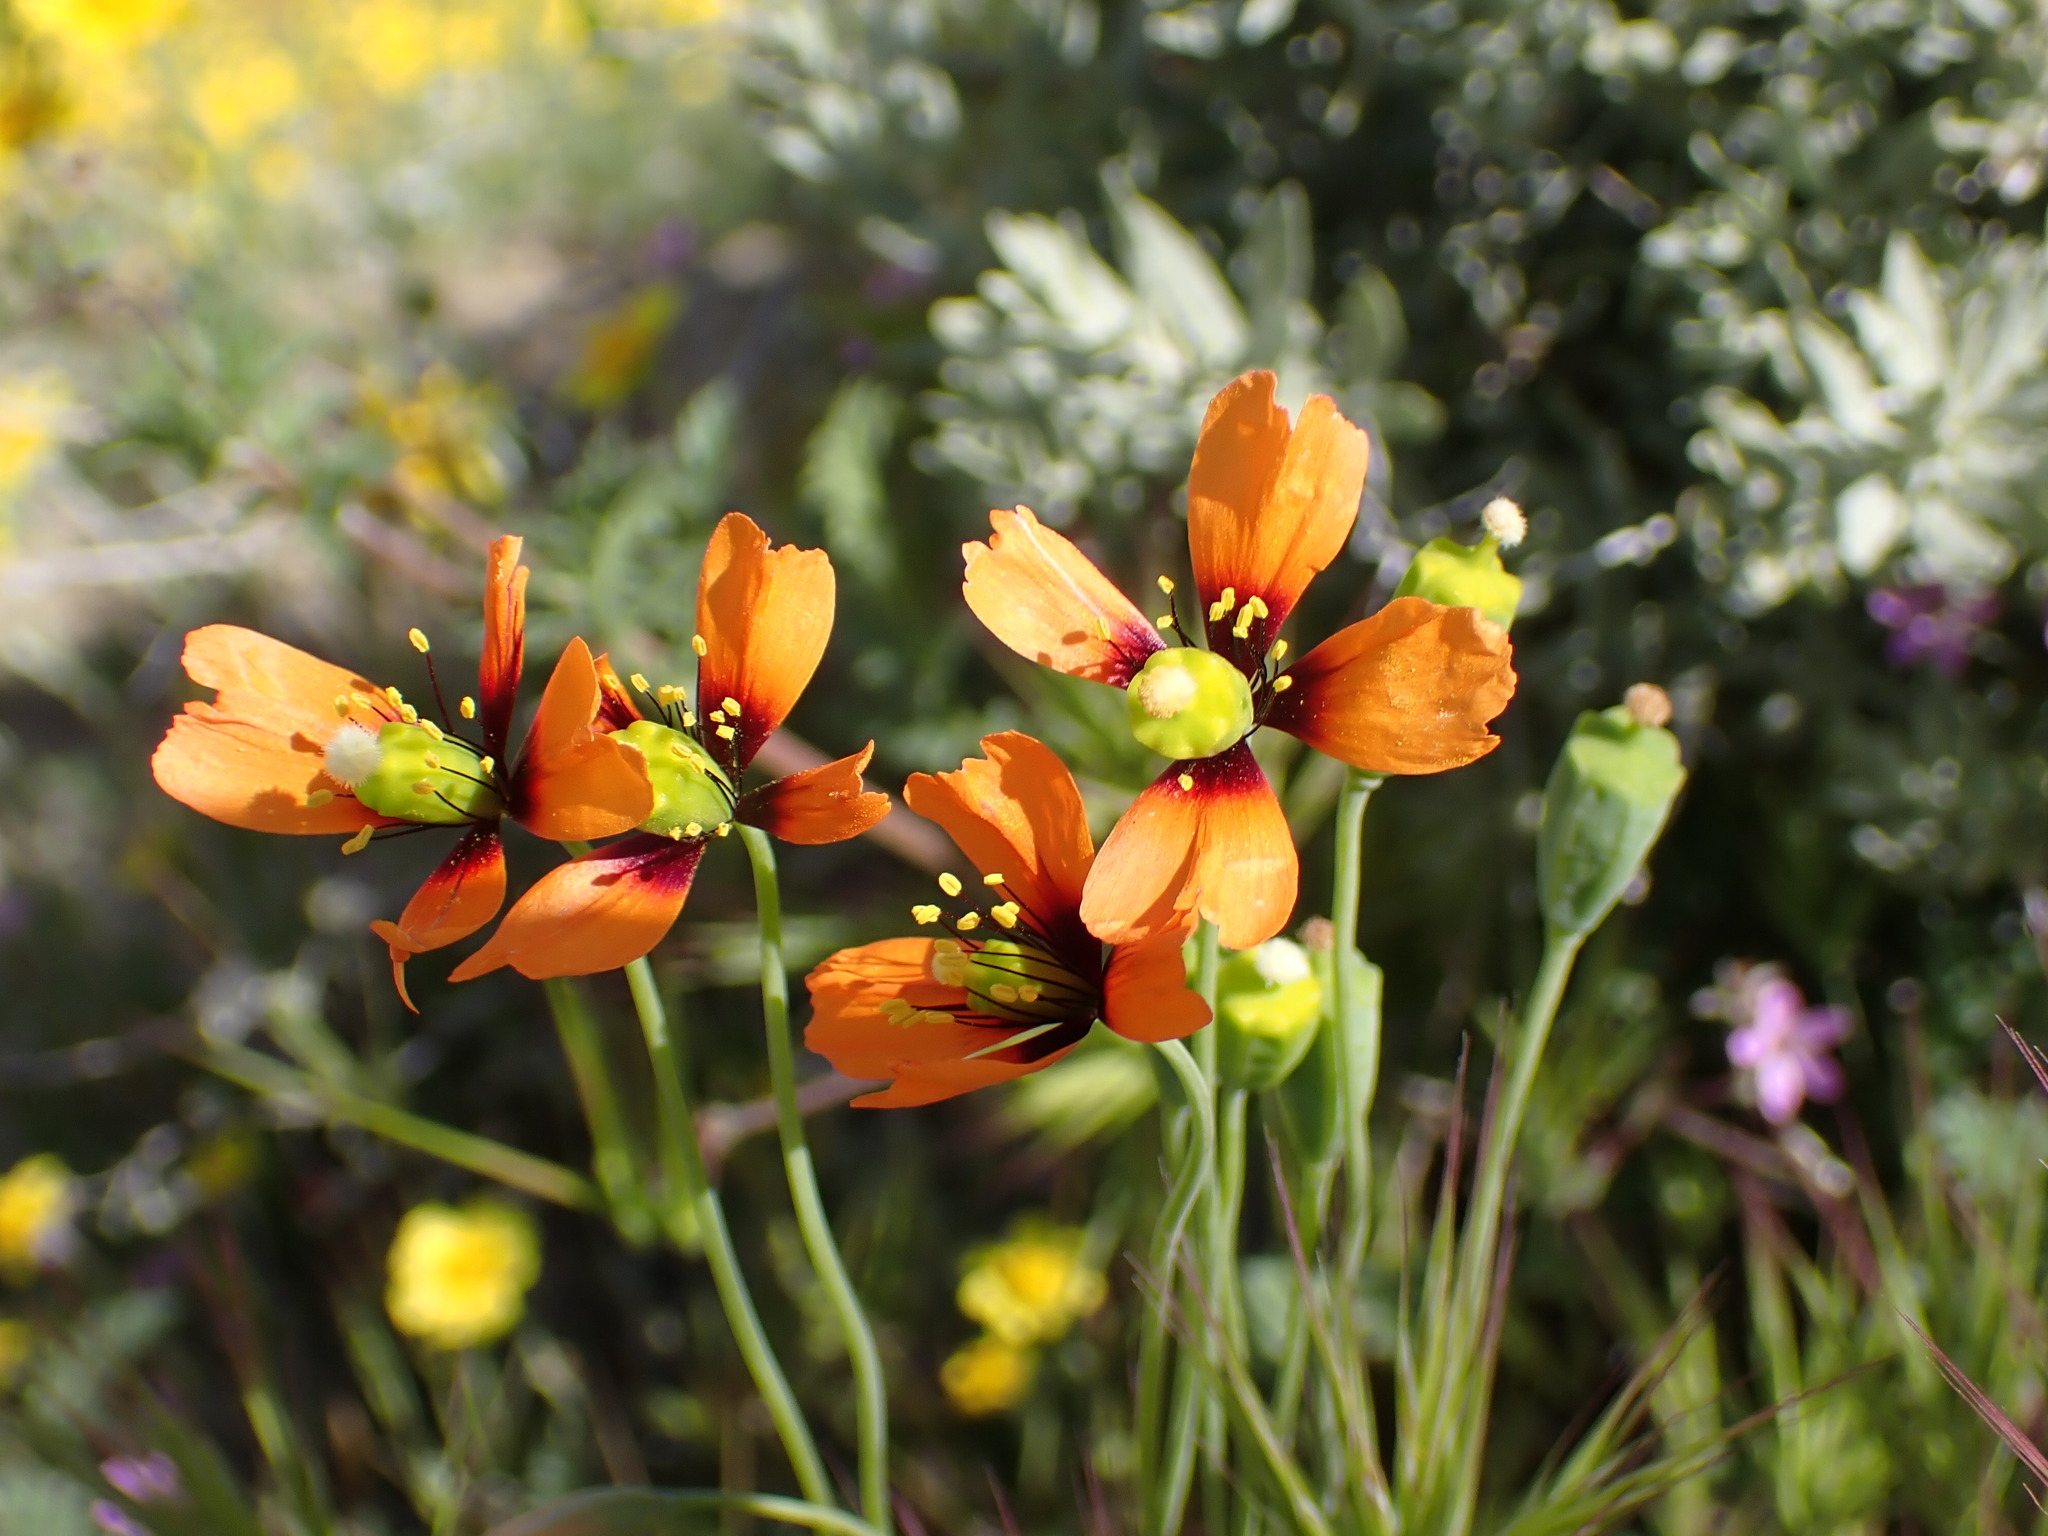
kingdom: Plantae
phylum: Tracheophyta
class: Magnoliopsida
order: Ranunculales
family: Papaveraceae
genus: Stylomecon
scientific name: Stylomecon heterophylla
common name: Flaming-poppy
